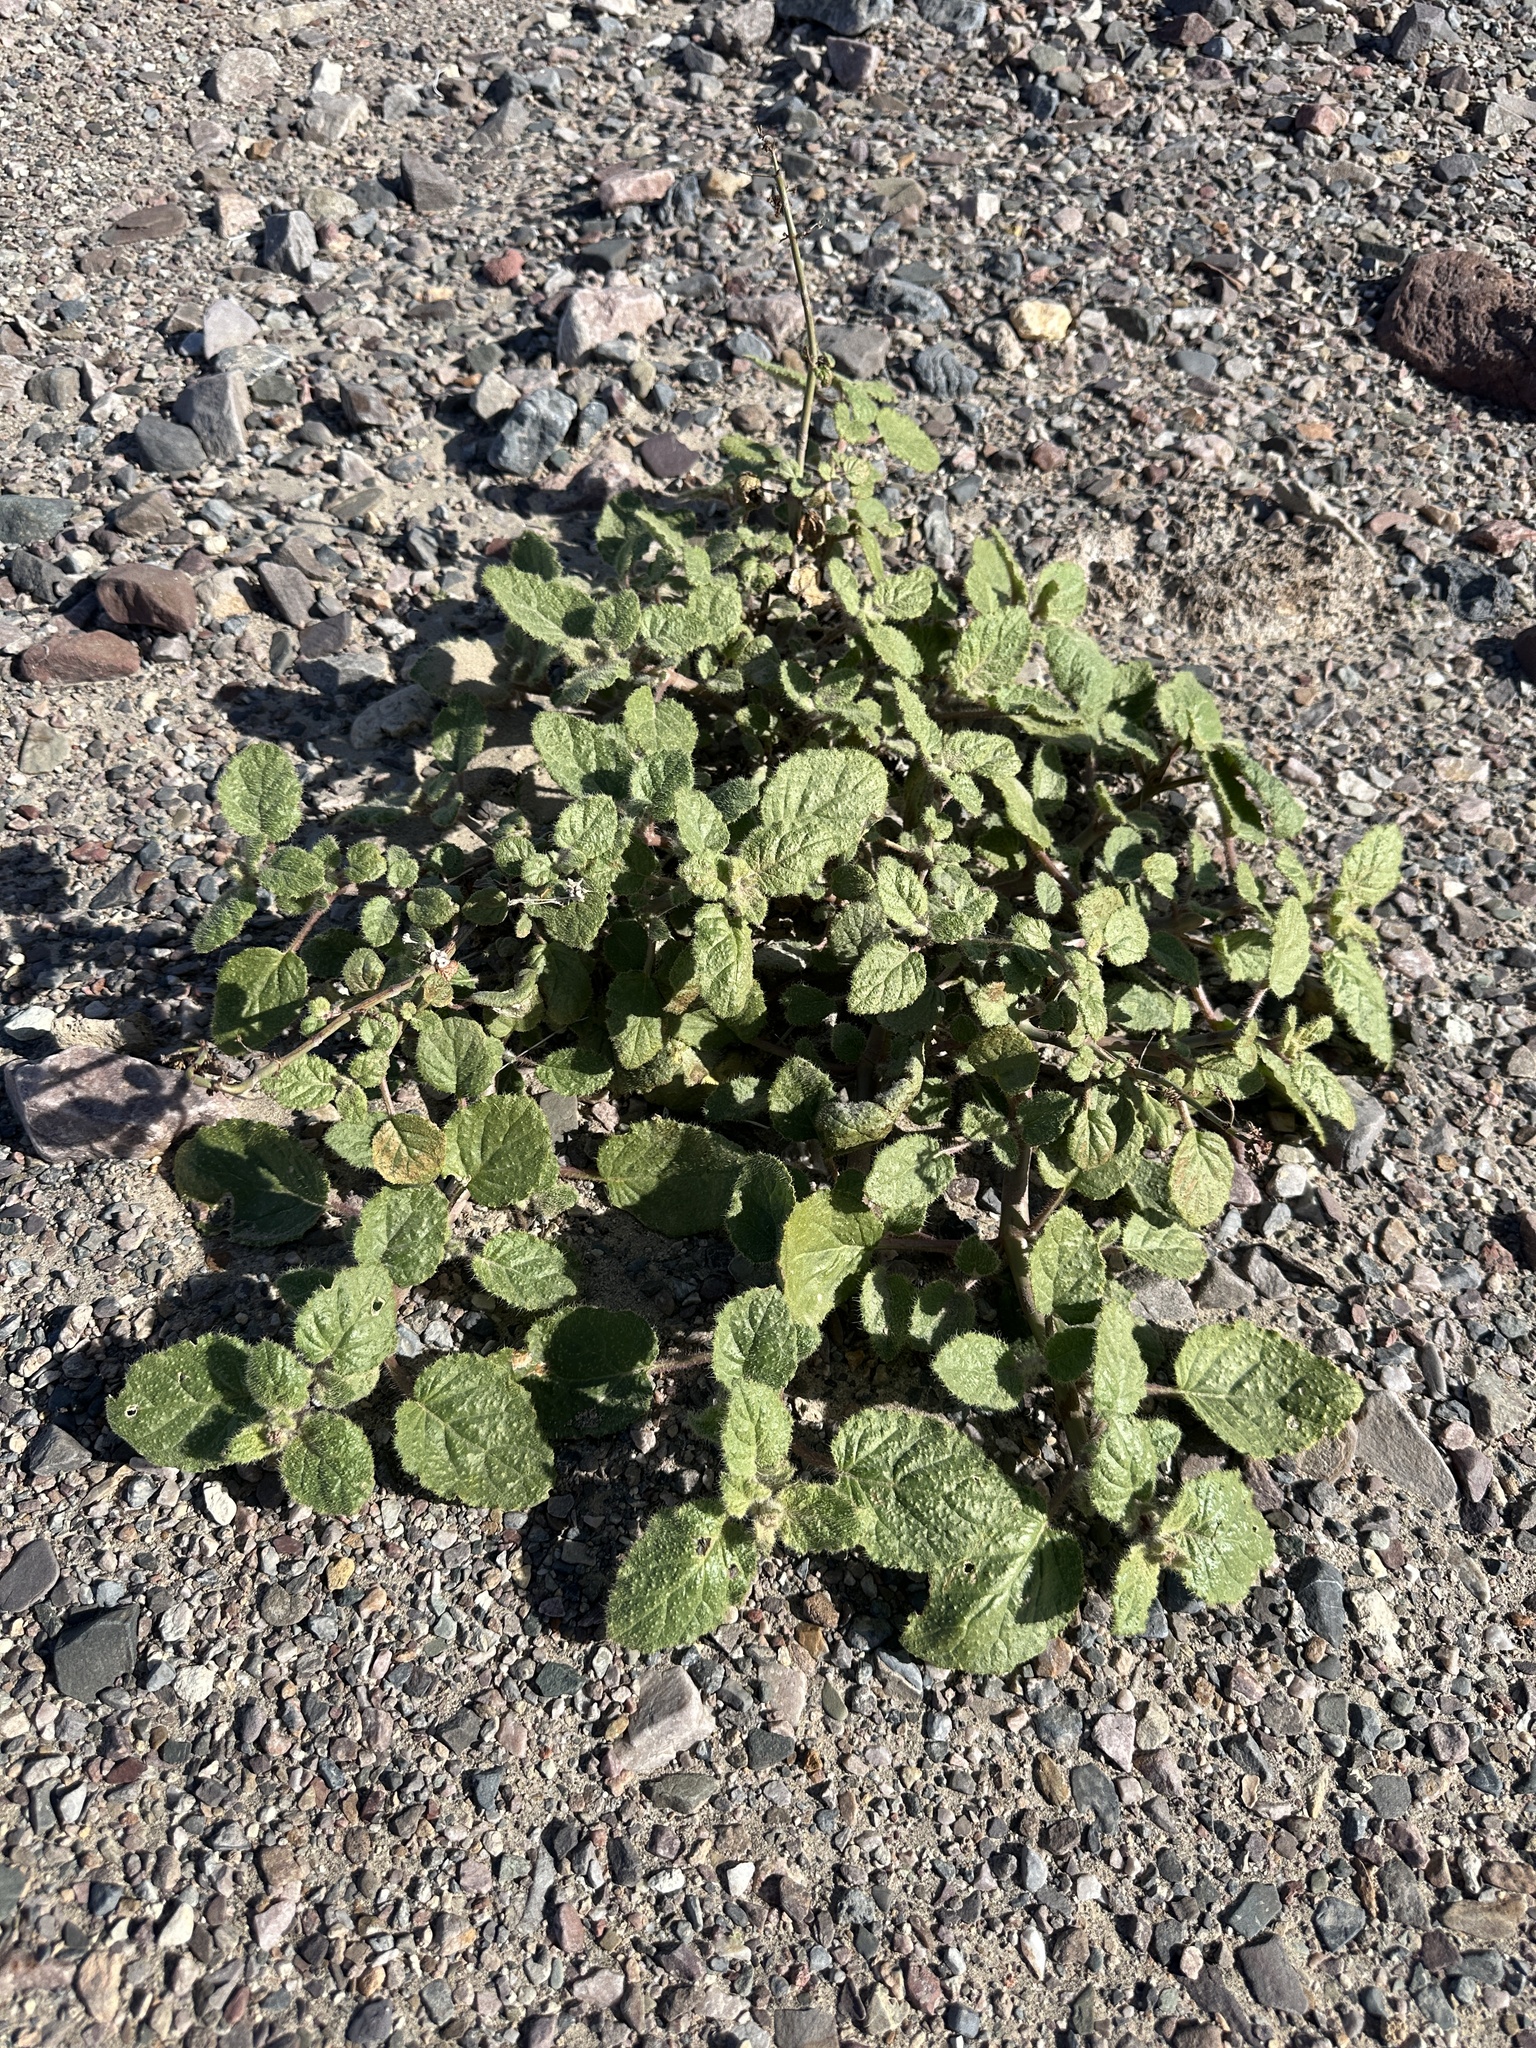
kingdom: Plantae
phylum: Tracheophyta
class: Magnoliopsida
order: Caryophyllales
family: Nyctaginaceae
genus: Anulocaulis
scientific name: Anulocaulis annulatus
